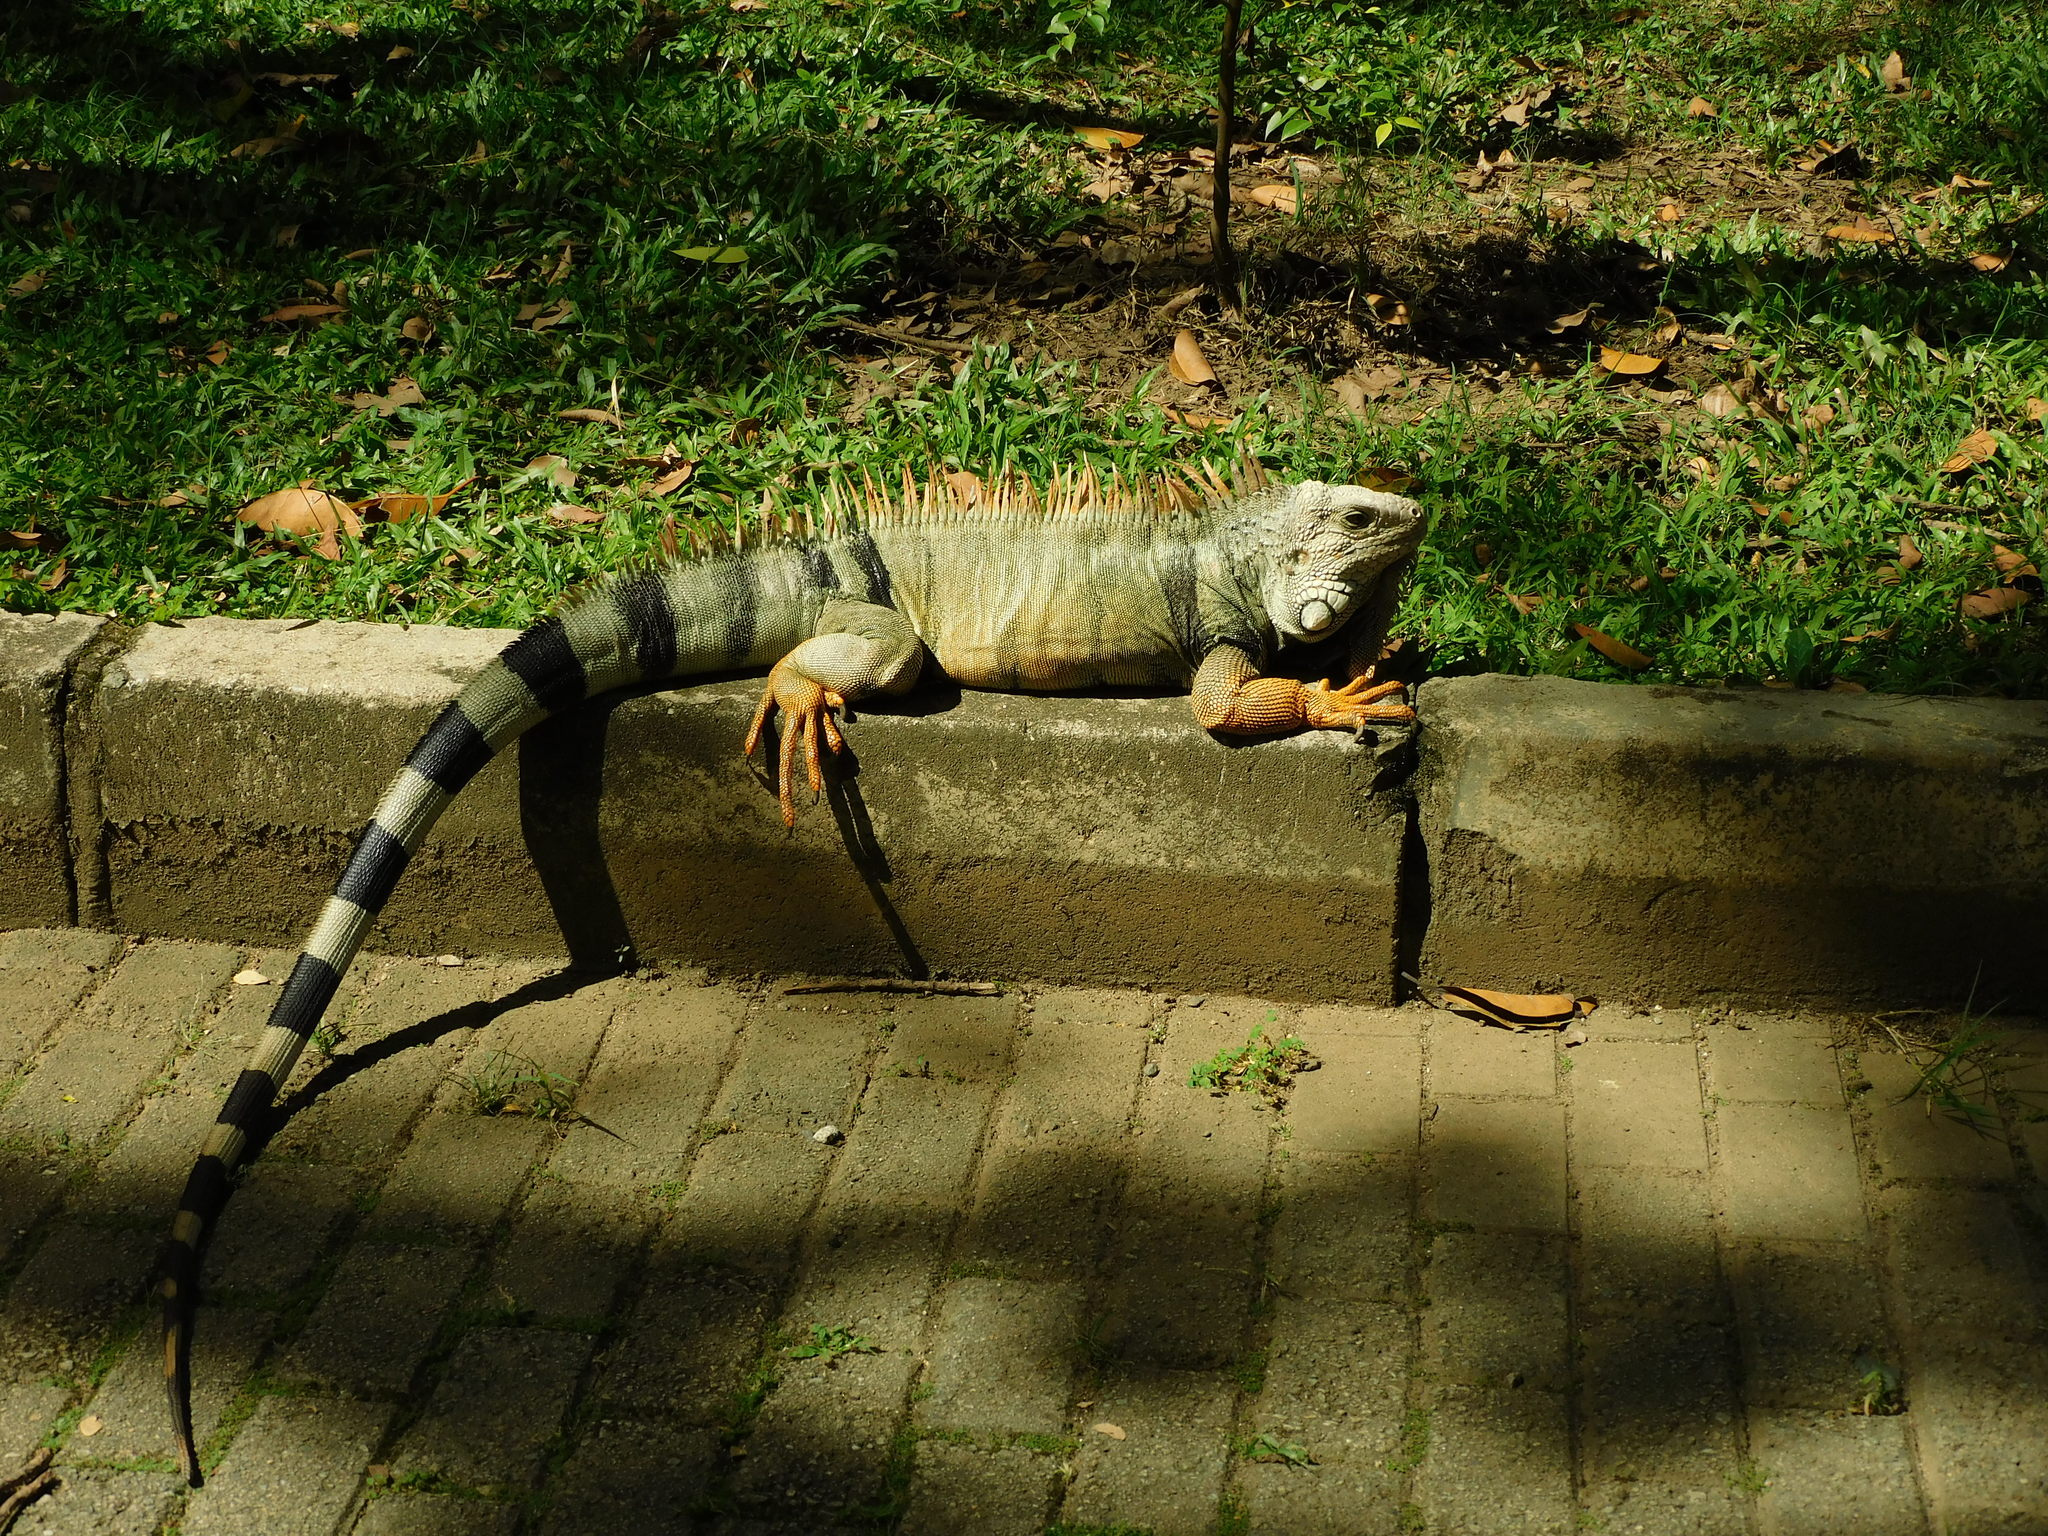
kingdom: Animalia
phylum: Chordata
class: Squamata
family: Iguanidae
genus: Iguana
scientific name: Iguana iguana
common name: Green iguana
